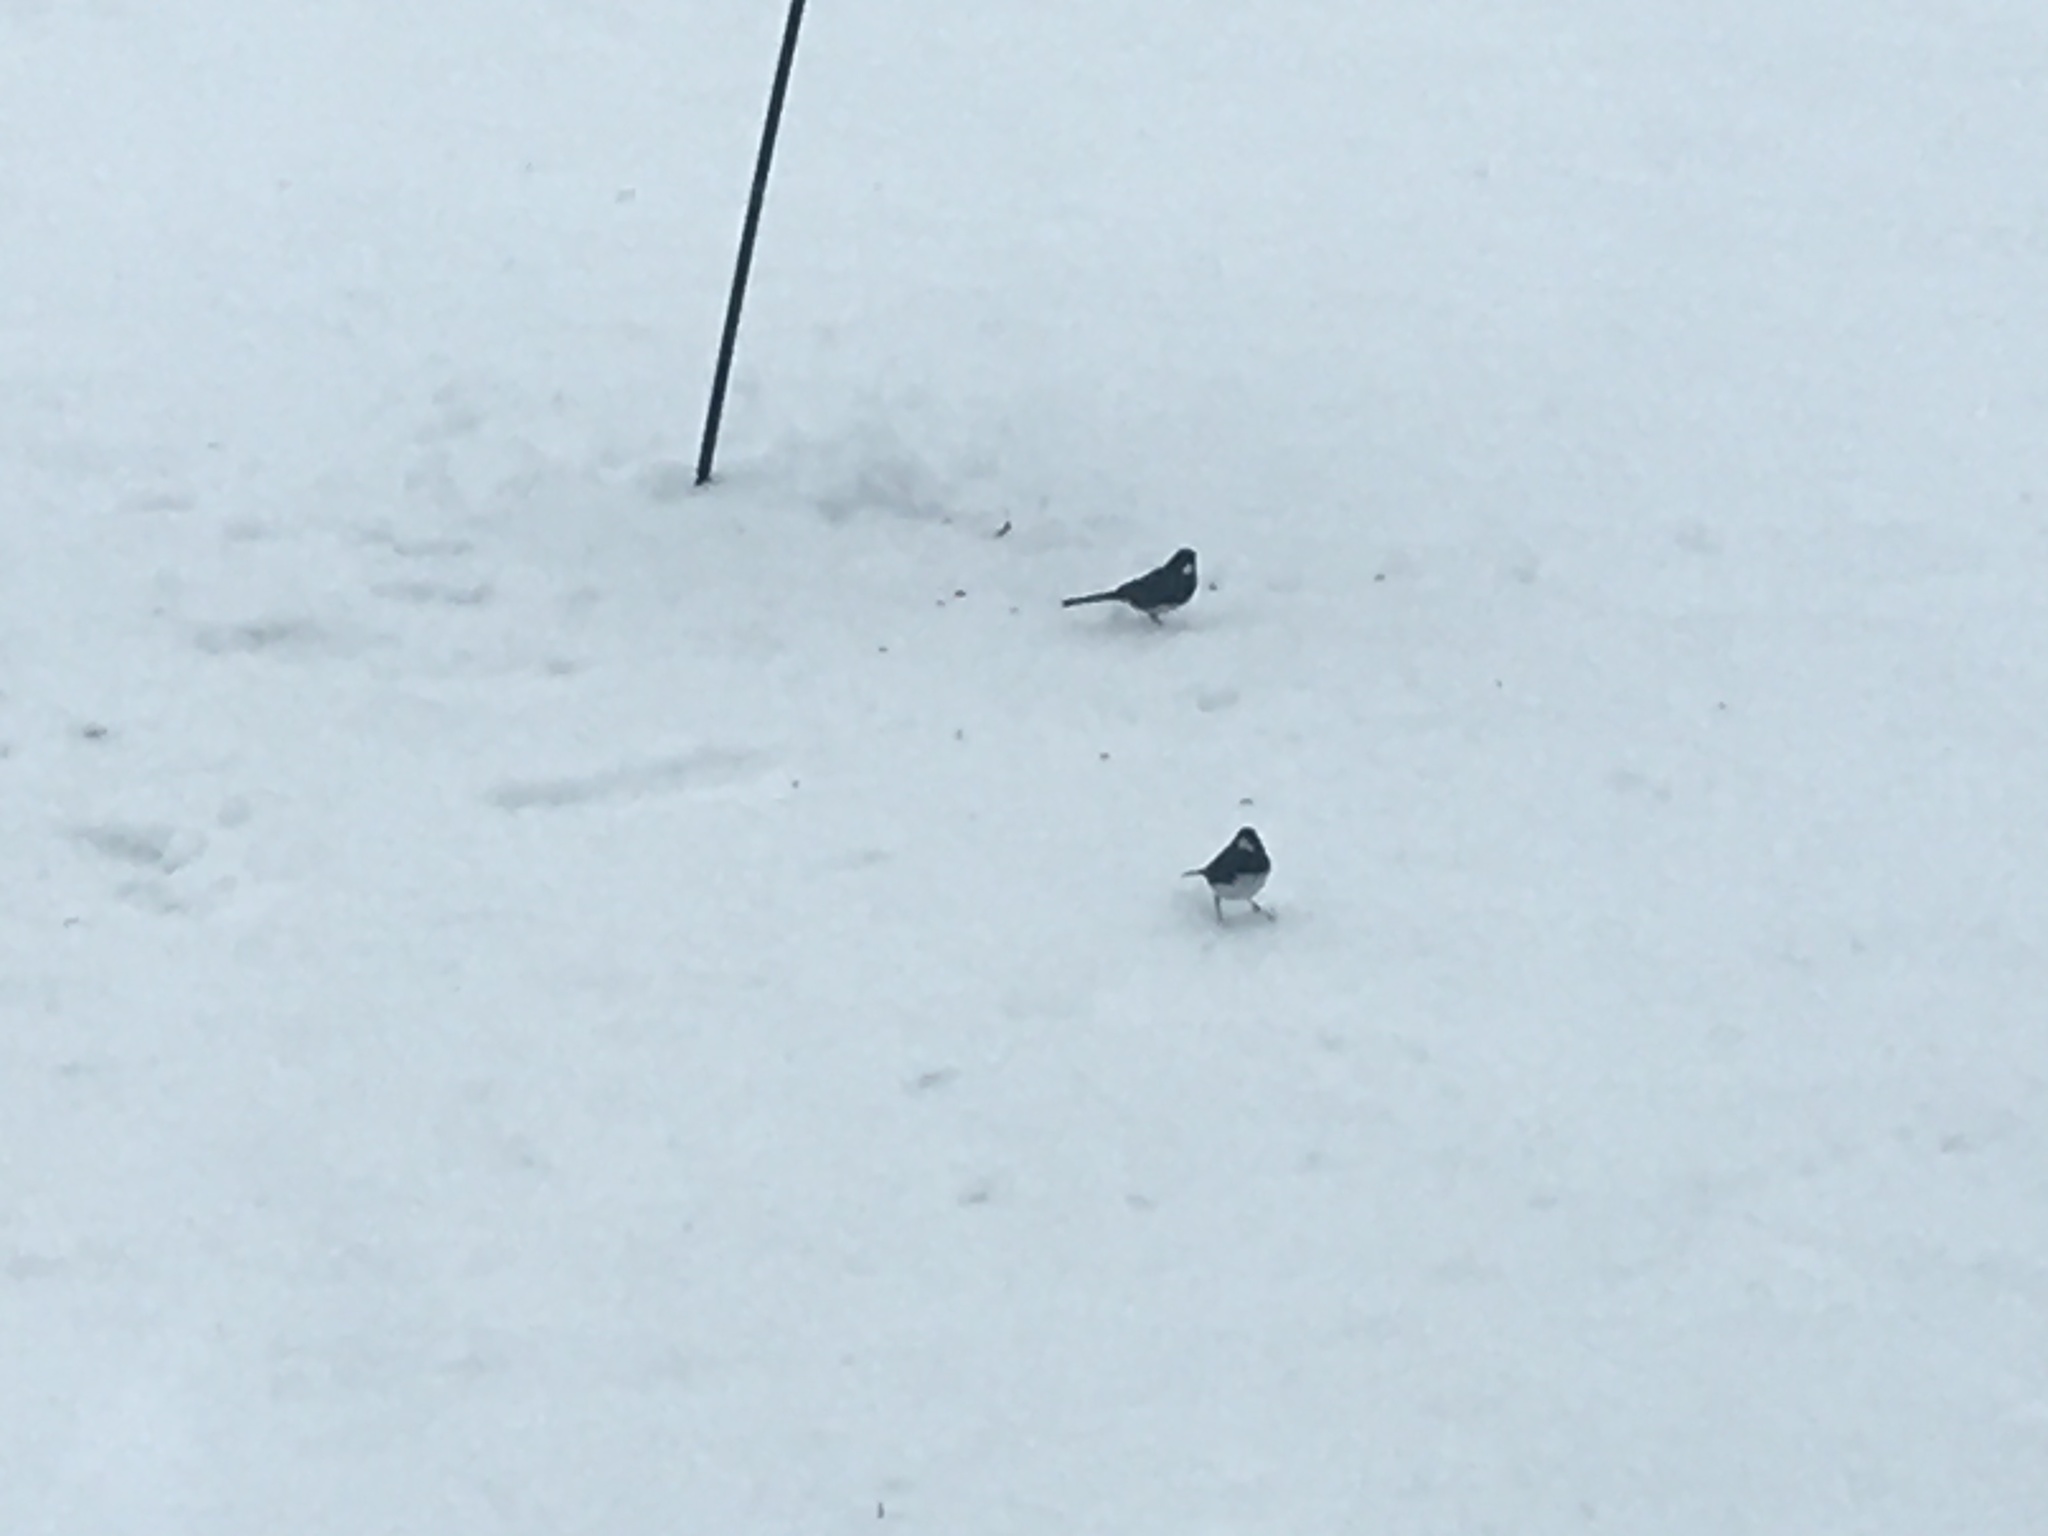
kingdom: Animalia
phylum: Chordata
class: Aves
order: Passeriformes
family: Passerellidae
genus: Junco
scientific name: Junco hyemalis
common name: Dark-eyed junco
